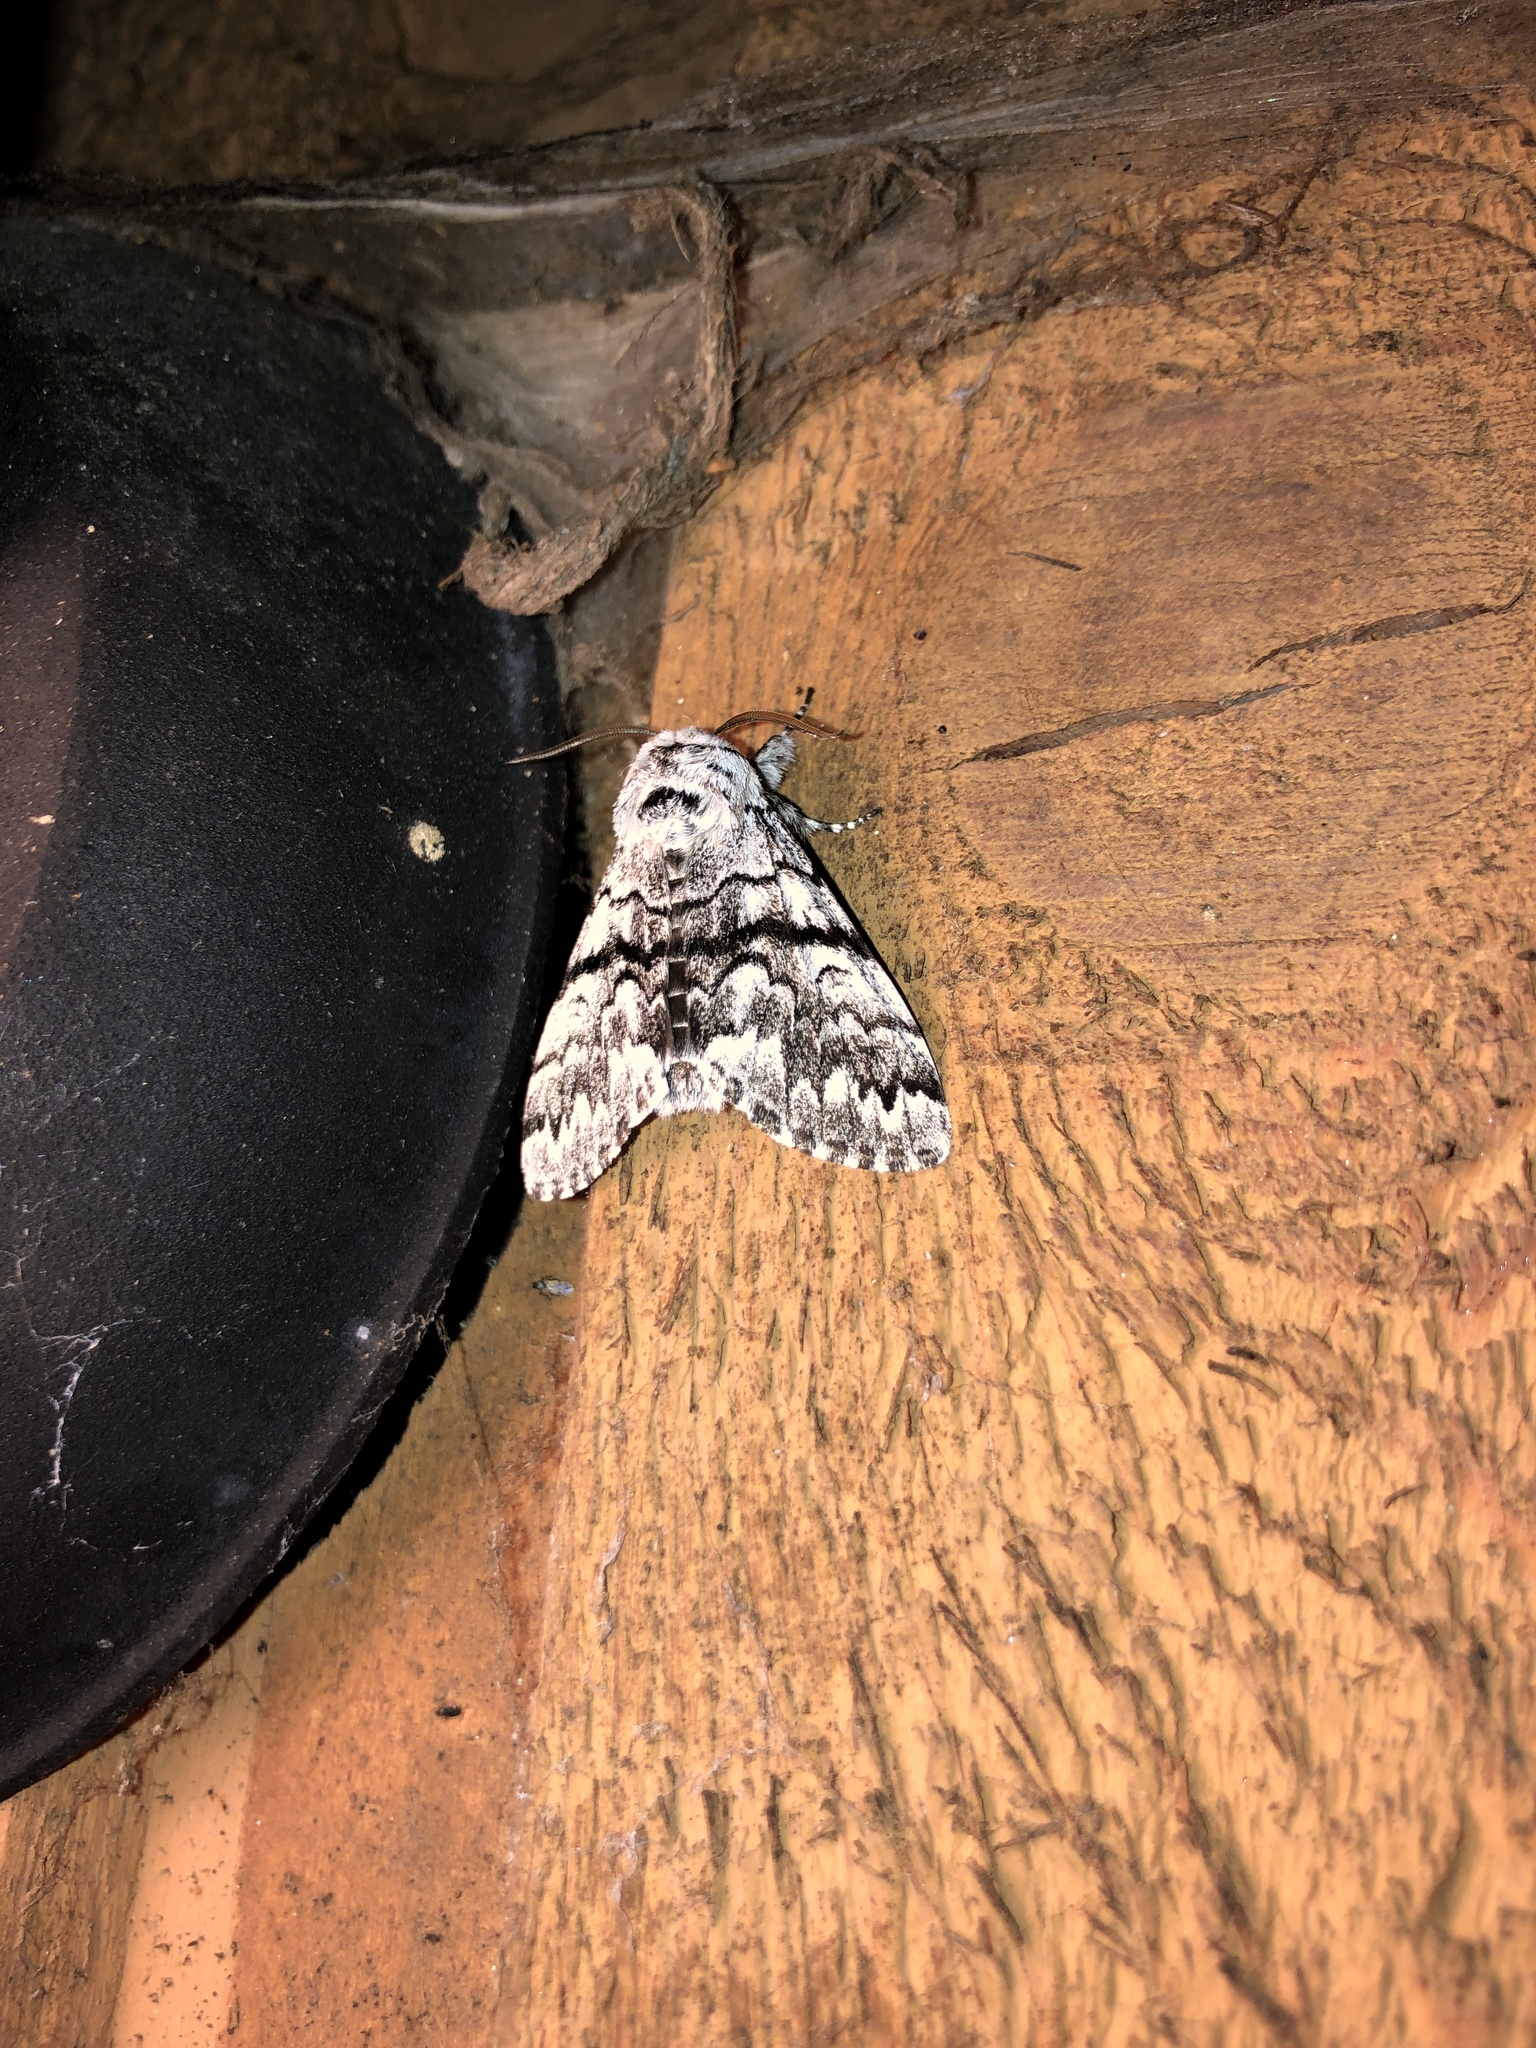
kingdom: Animalia
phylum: Arthropoda
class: Insecta
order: Lepidoptera
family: Noctuidae
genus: Panthea
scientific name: Panthea virginarius
